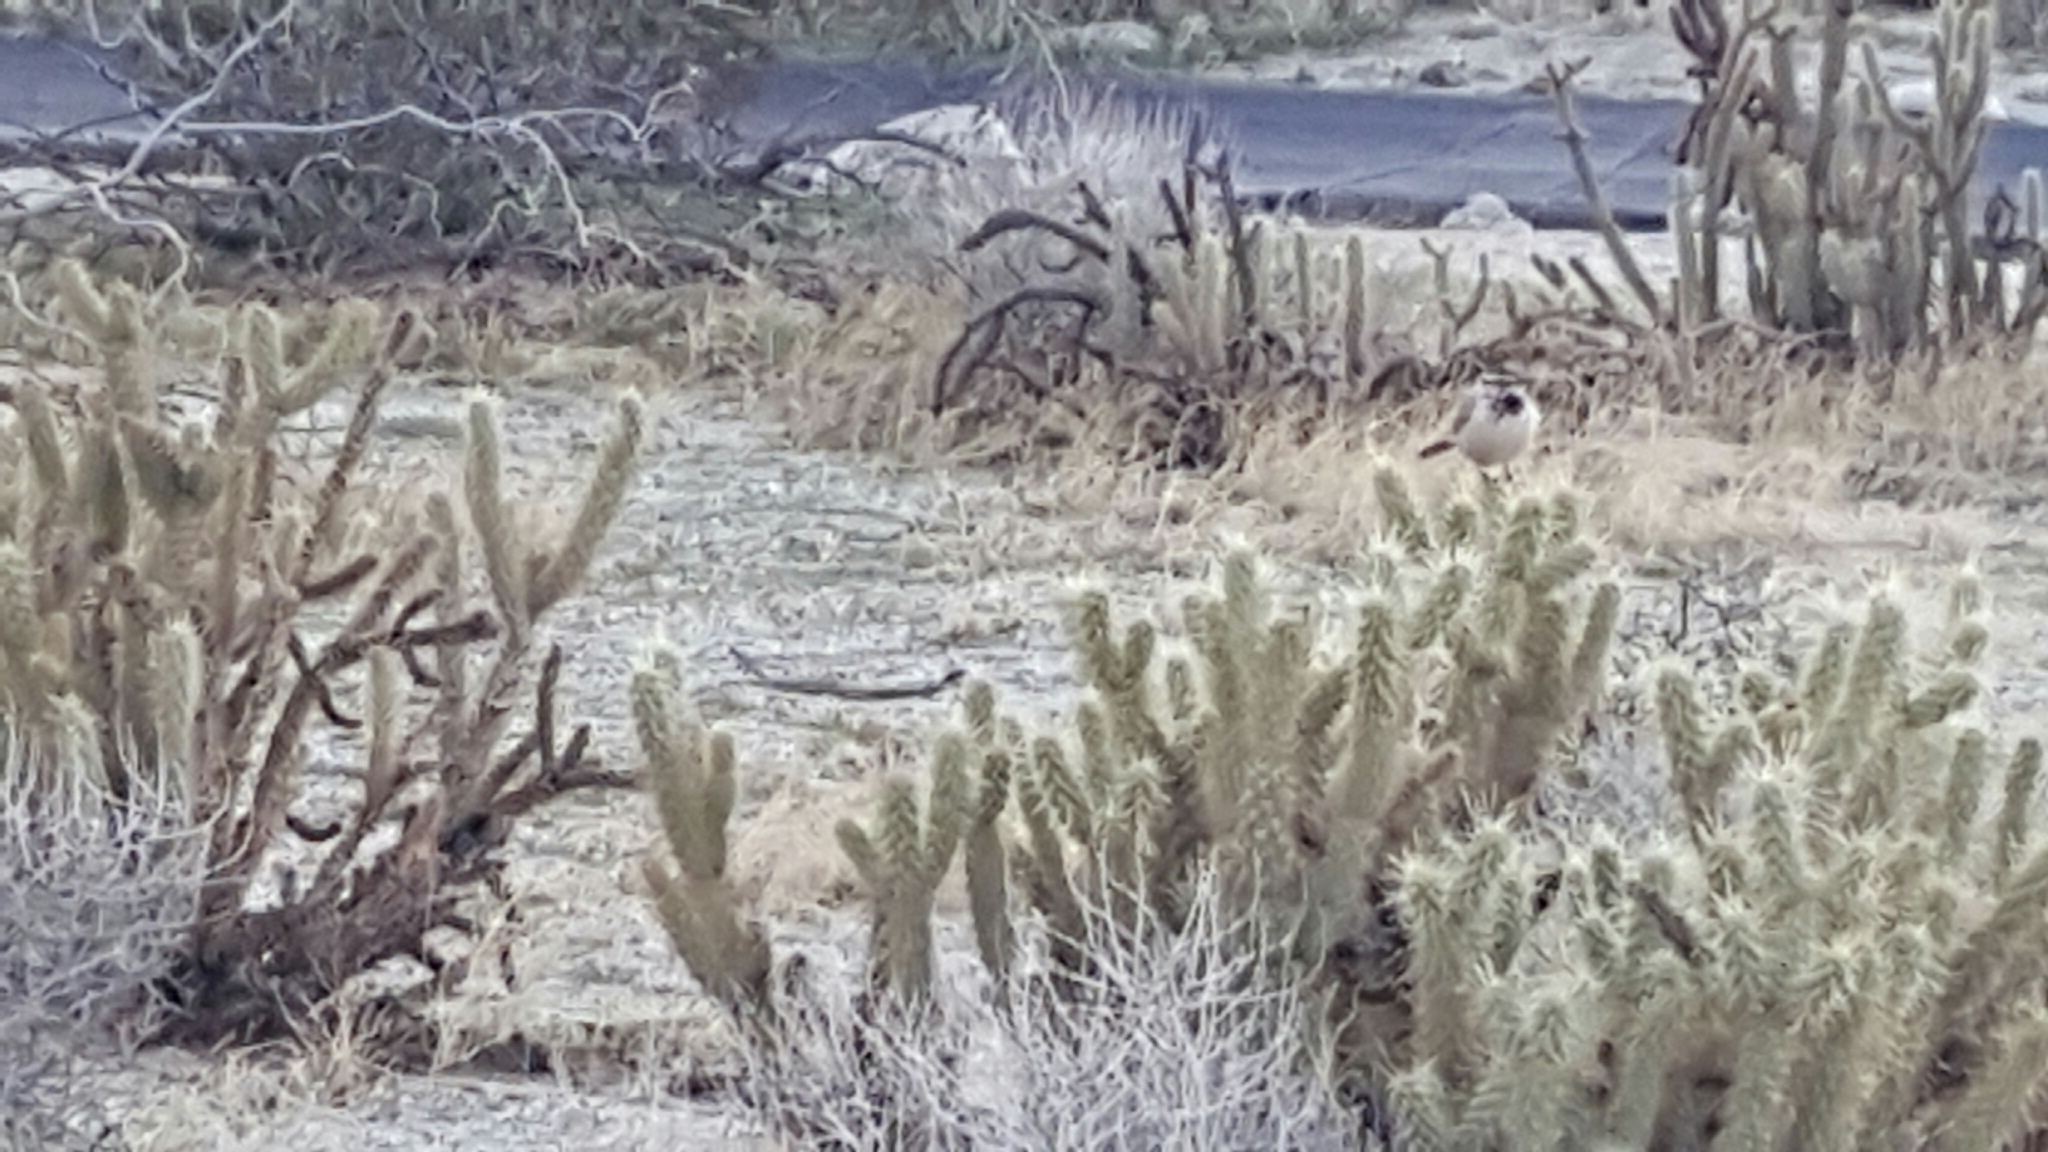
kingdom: Animalia
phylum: Chordata
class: Aves
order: Passeriformes
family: Troglodytidae
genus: Campylorhynchus
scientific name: Campylorhynchus brunneicapillus
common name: Cactus wren
